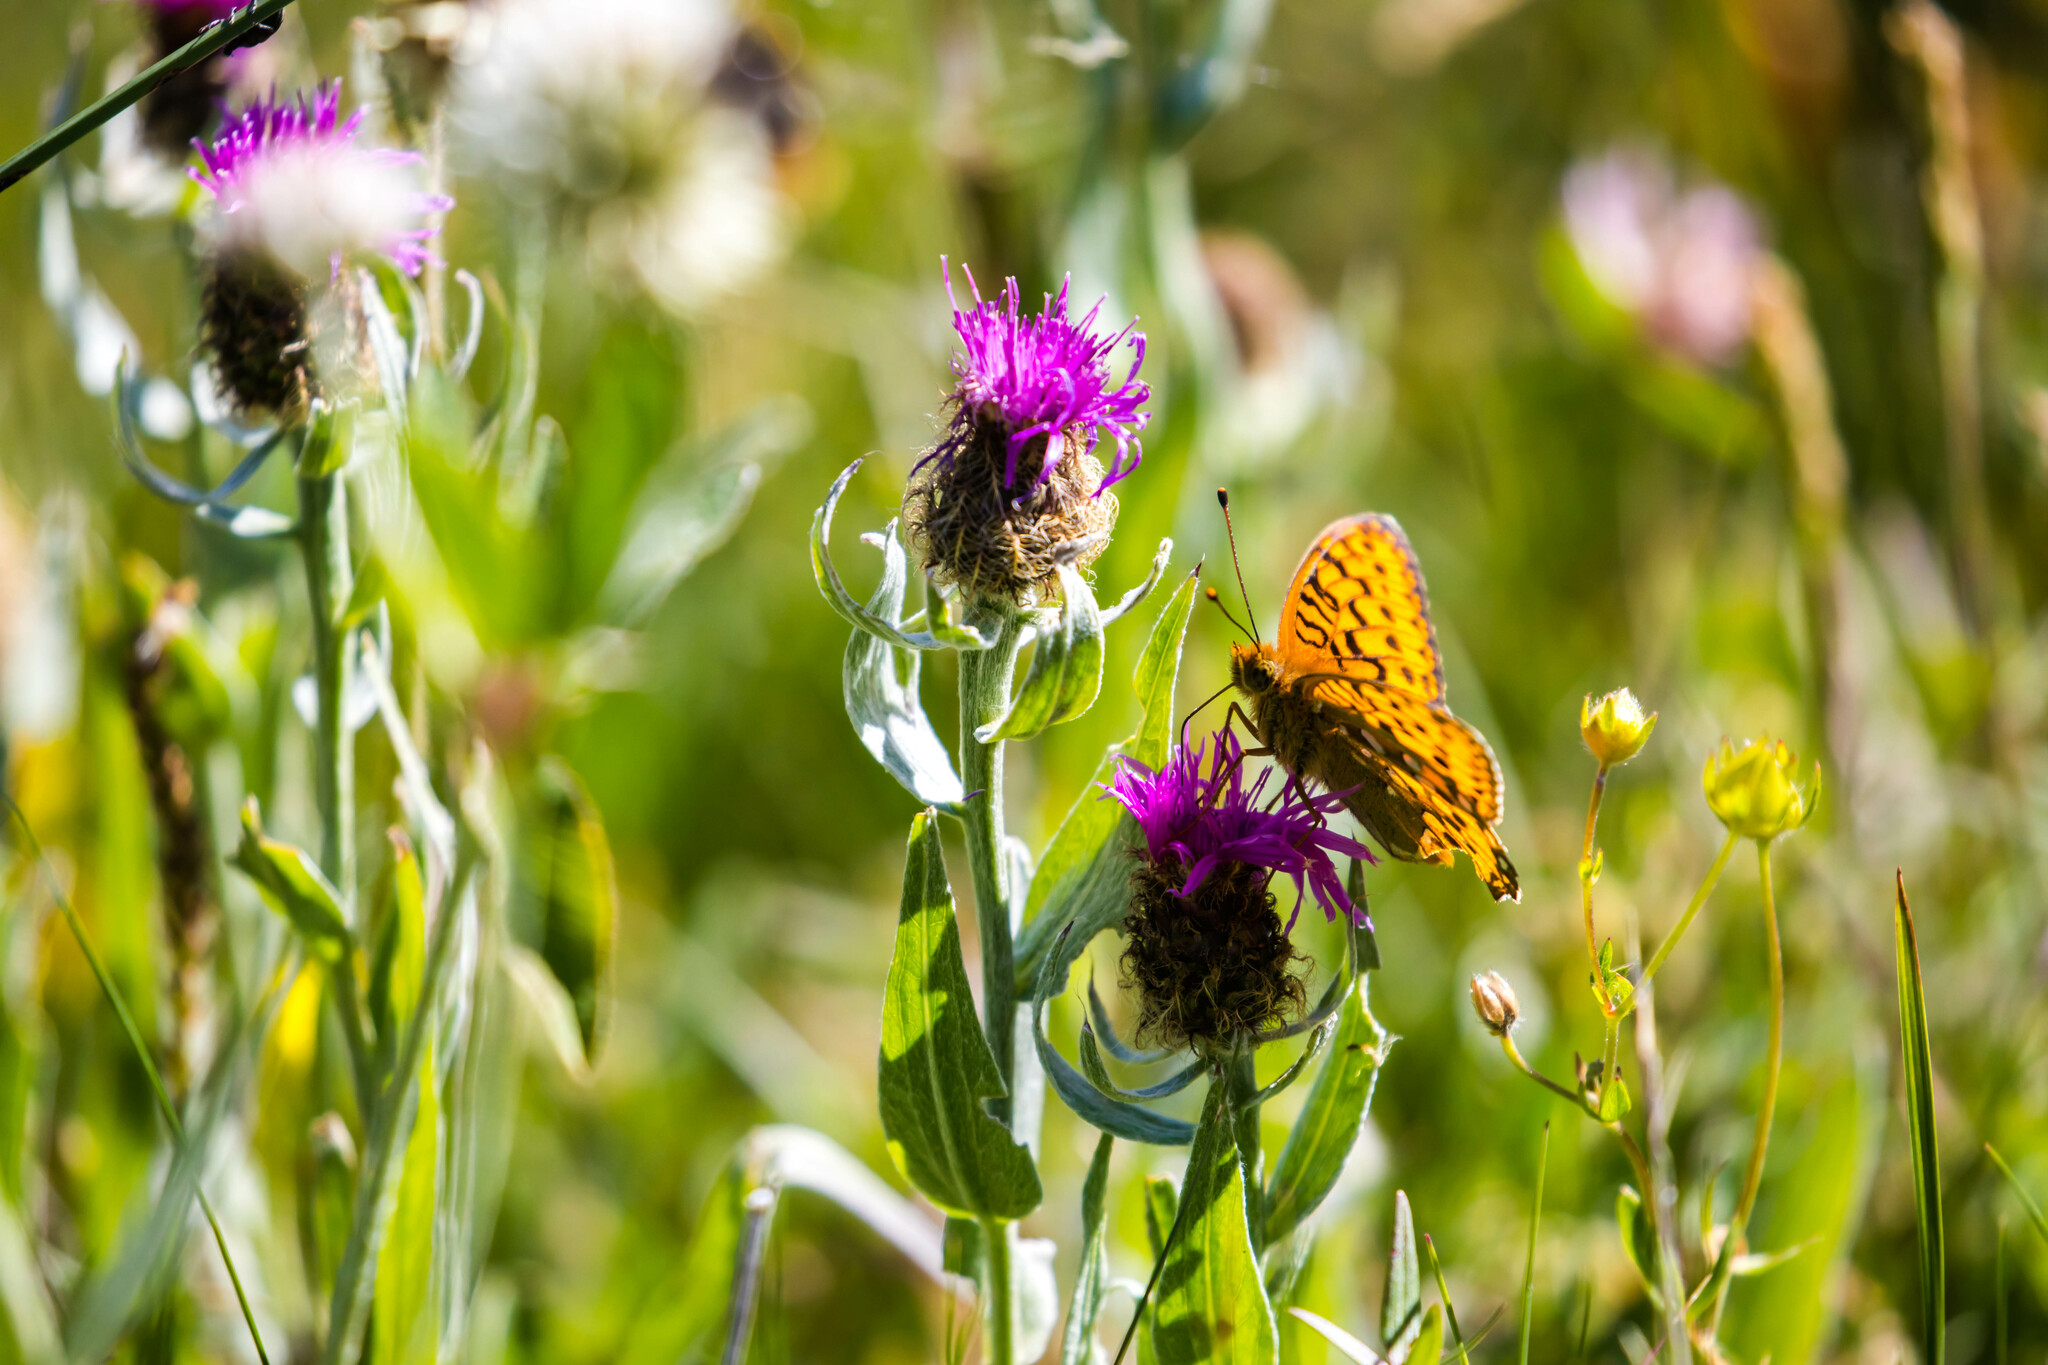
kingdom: Animalia
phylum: Arthropoda
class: Insecta
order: Lepidoptera
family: Nymphalidae
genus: Speyeria
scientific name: Speyeria aglaja
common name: Dark green fritillary
